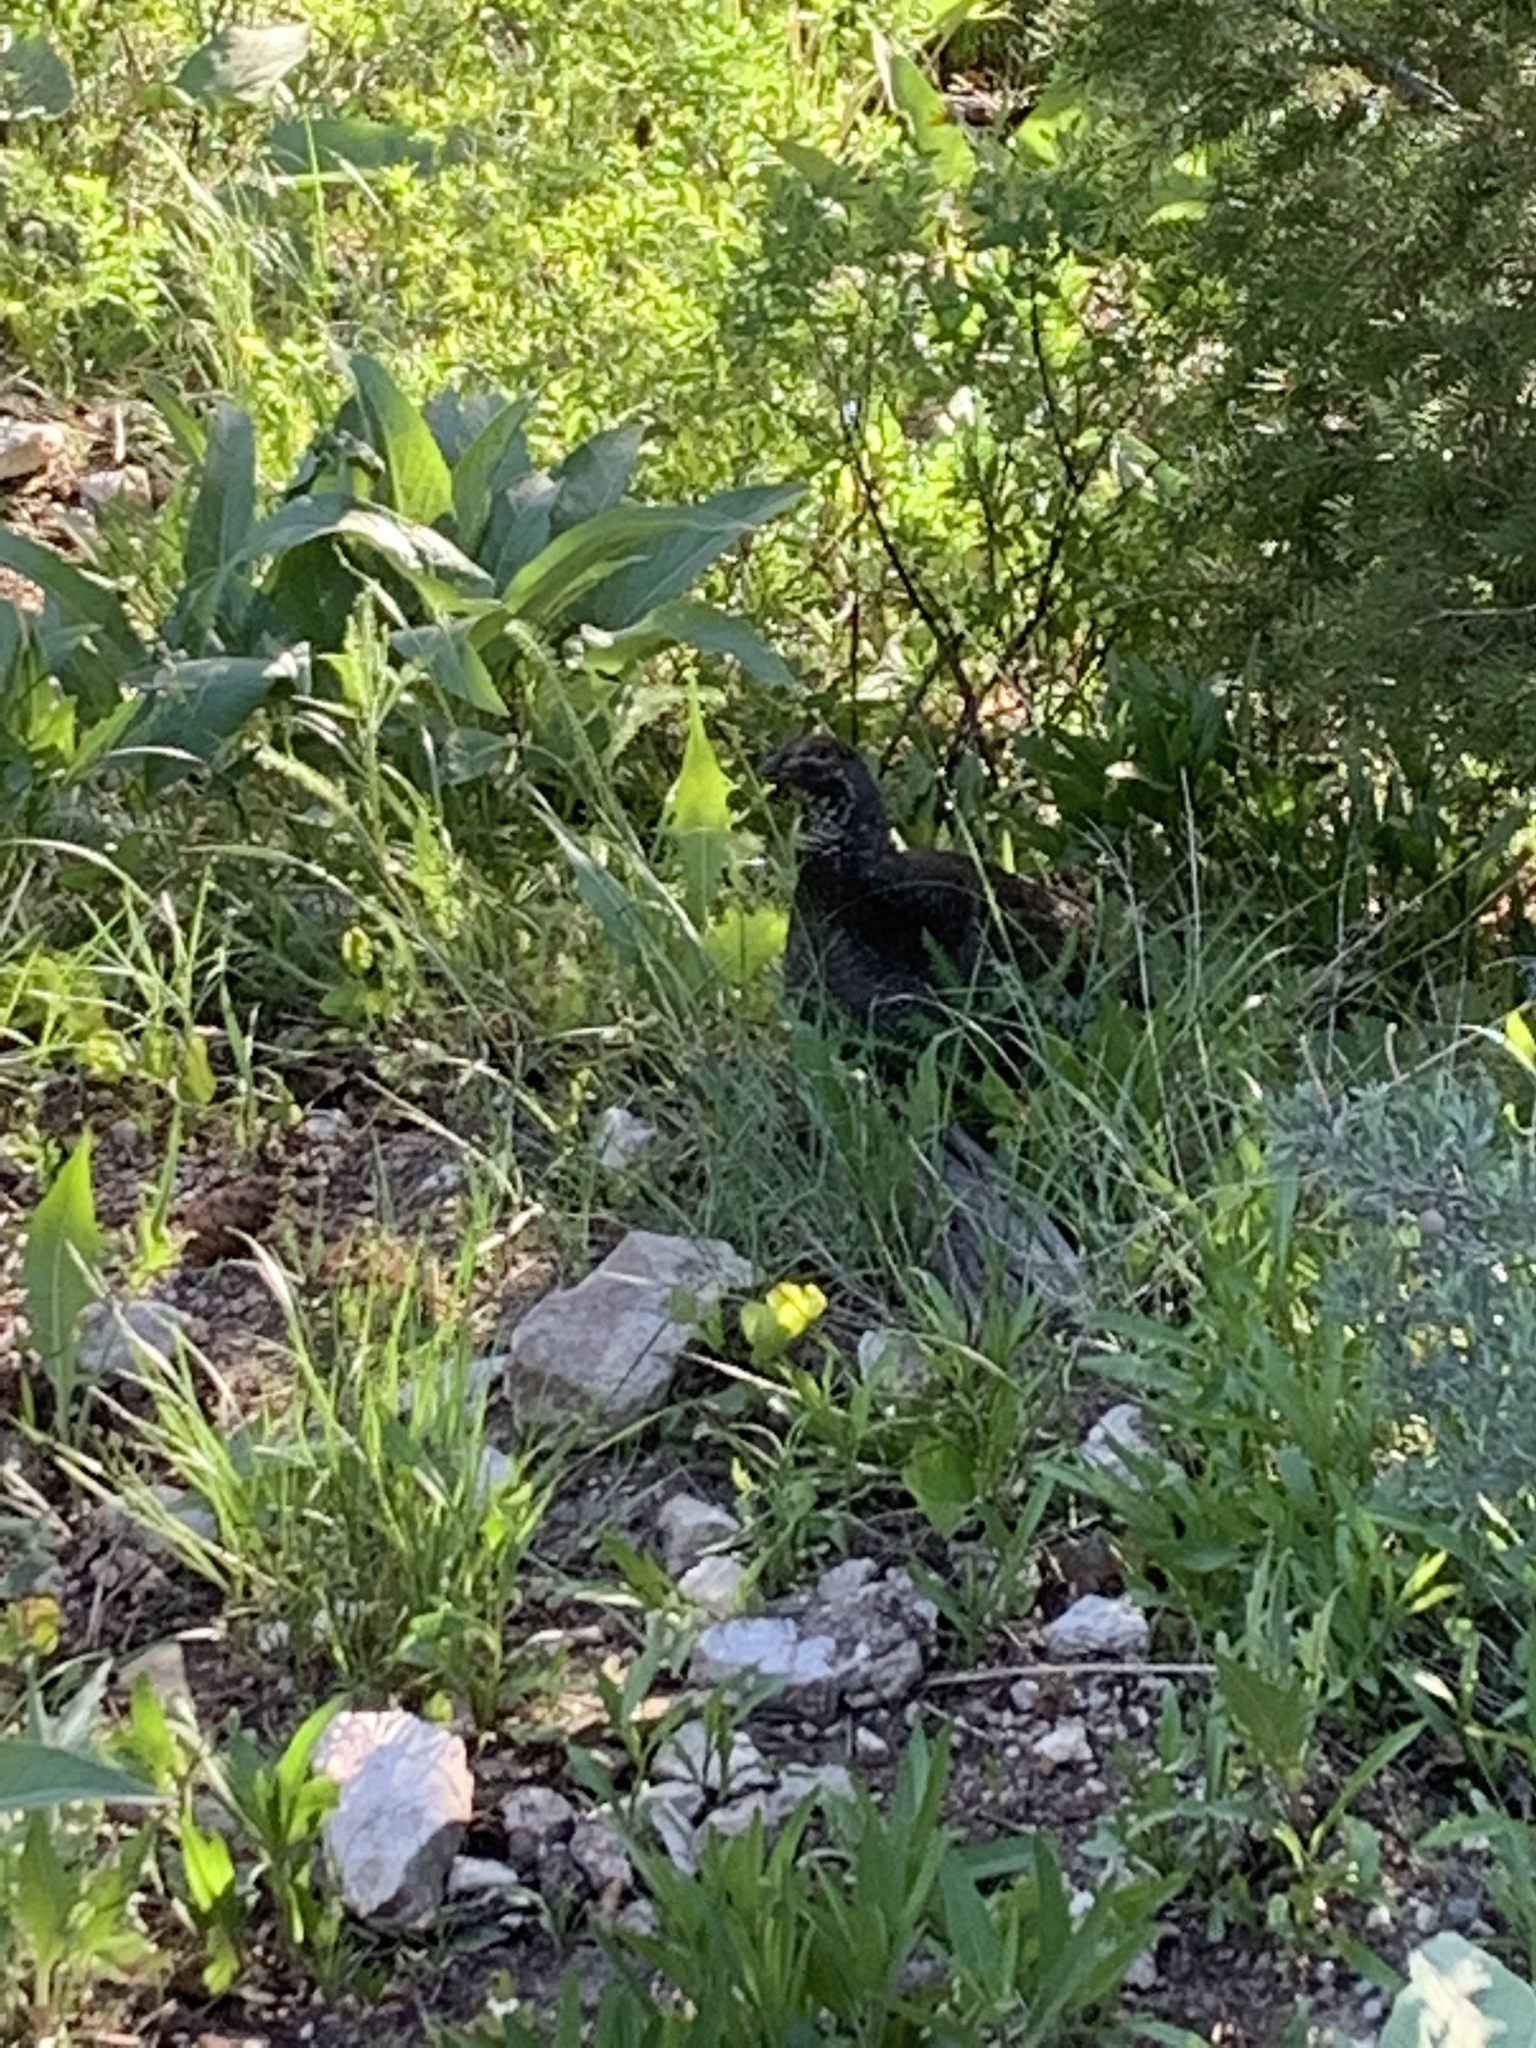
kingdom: Animalia
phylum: Chordata
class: Aves
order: Galliformes
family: Phasianidae
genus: Dendragapus
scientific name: Dendragapus obscurus
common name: Dusky grouse
